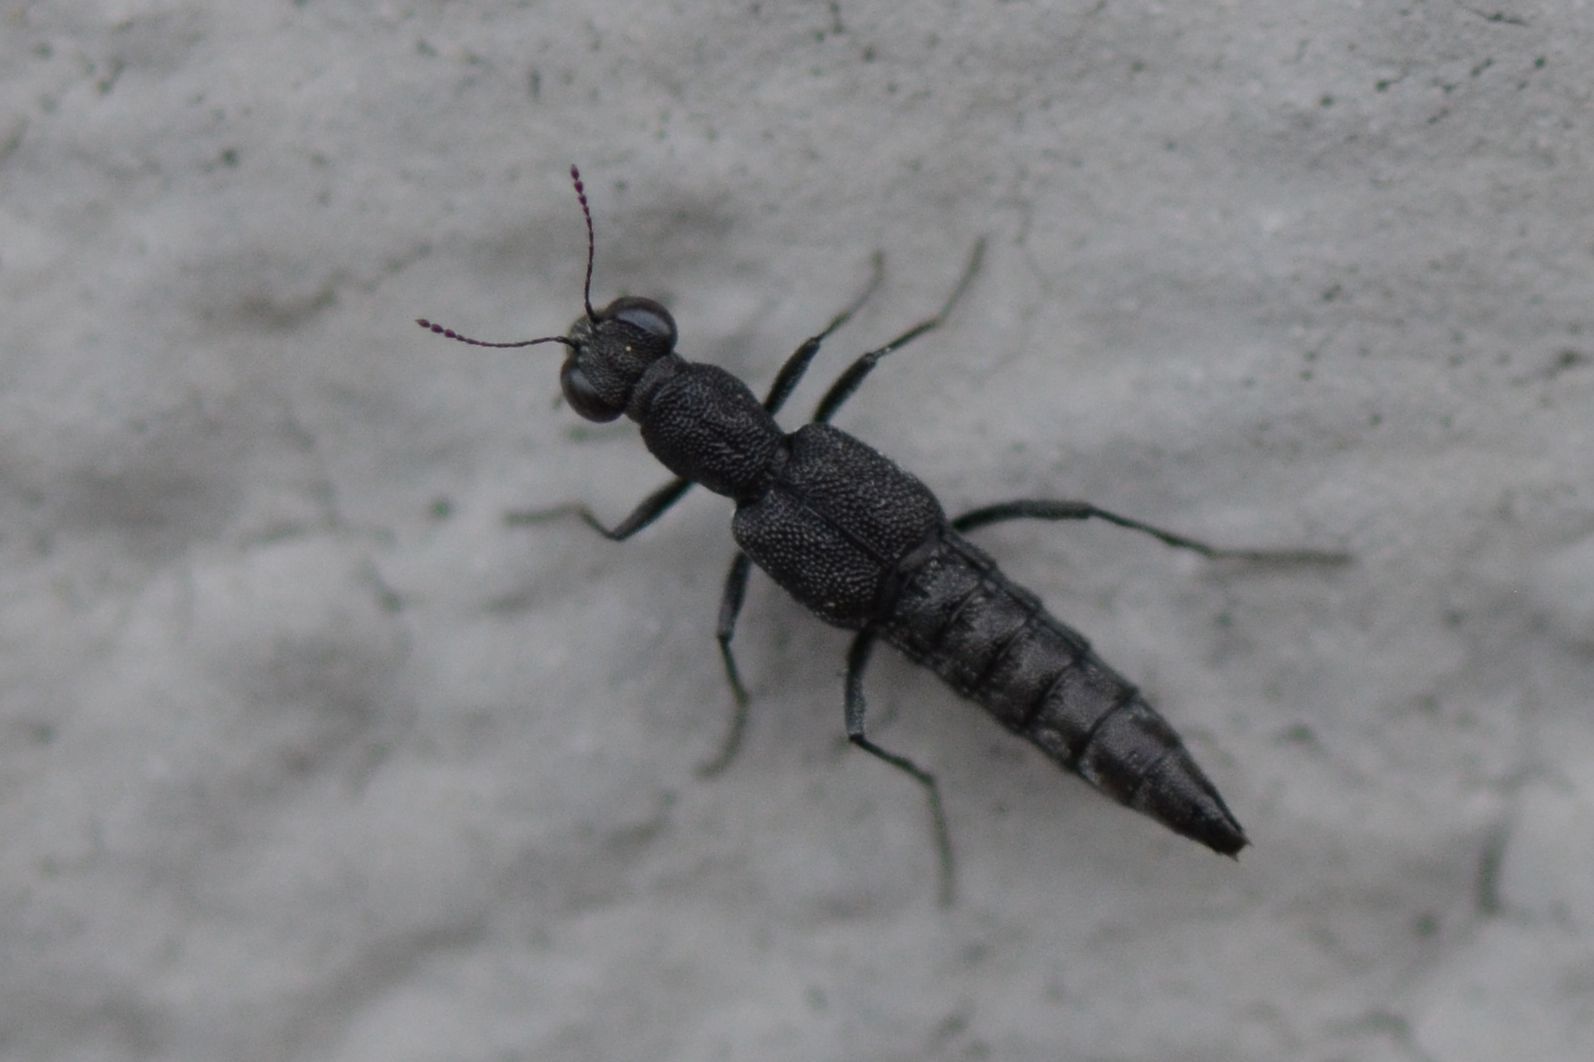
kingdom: Animalia
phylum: Arthropoda
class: Insecta
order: Coleoptera
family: Staphylinidae
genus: Stenus
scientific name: Stenus ater
